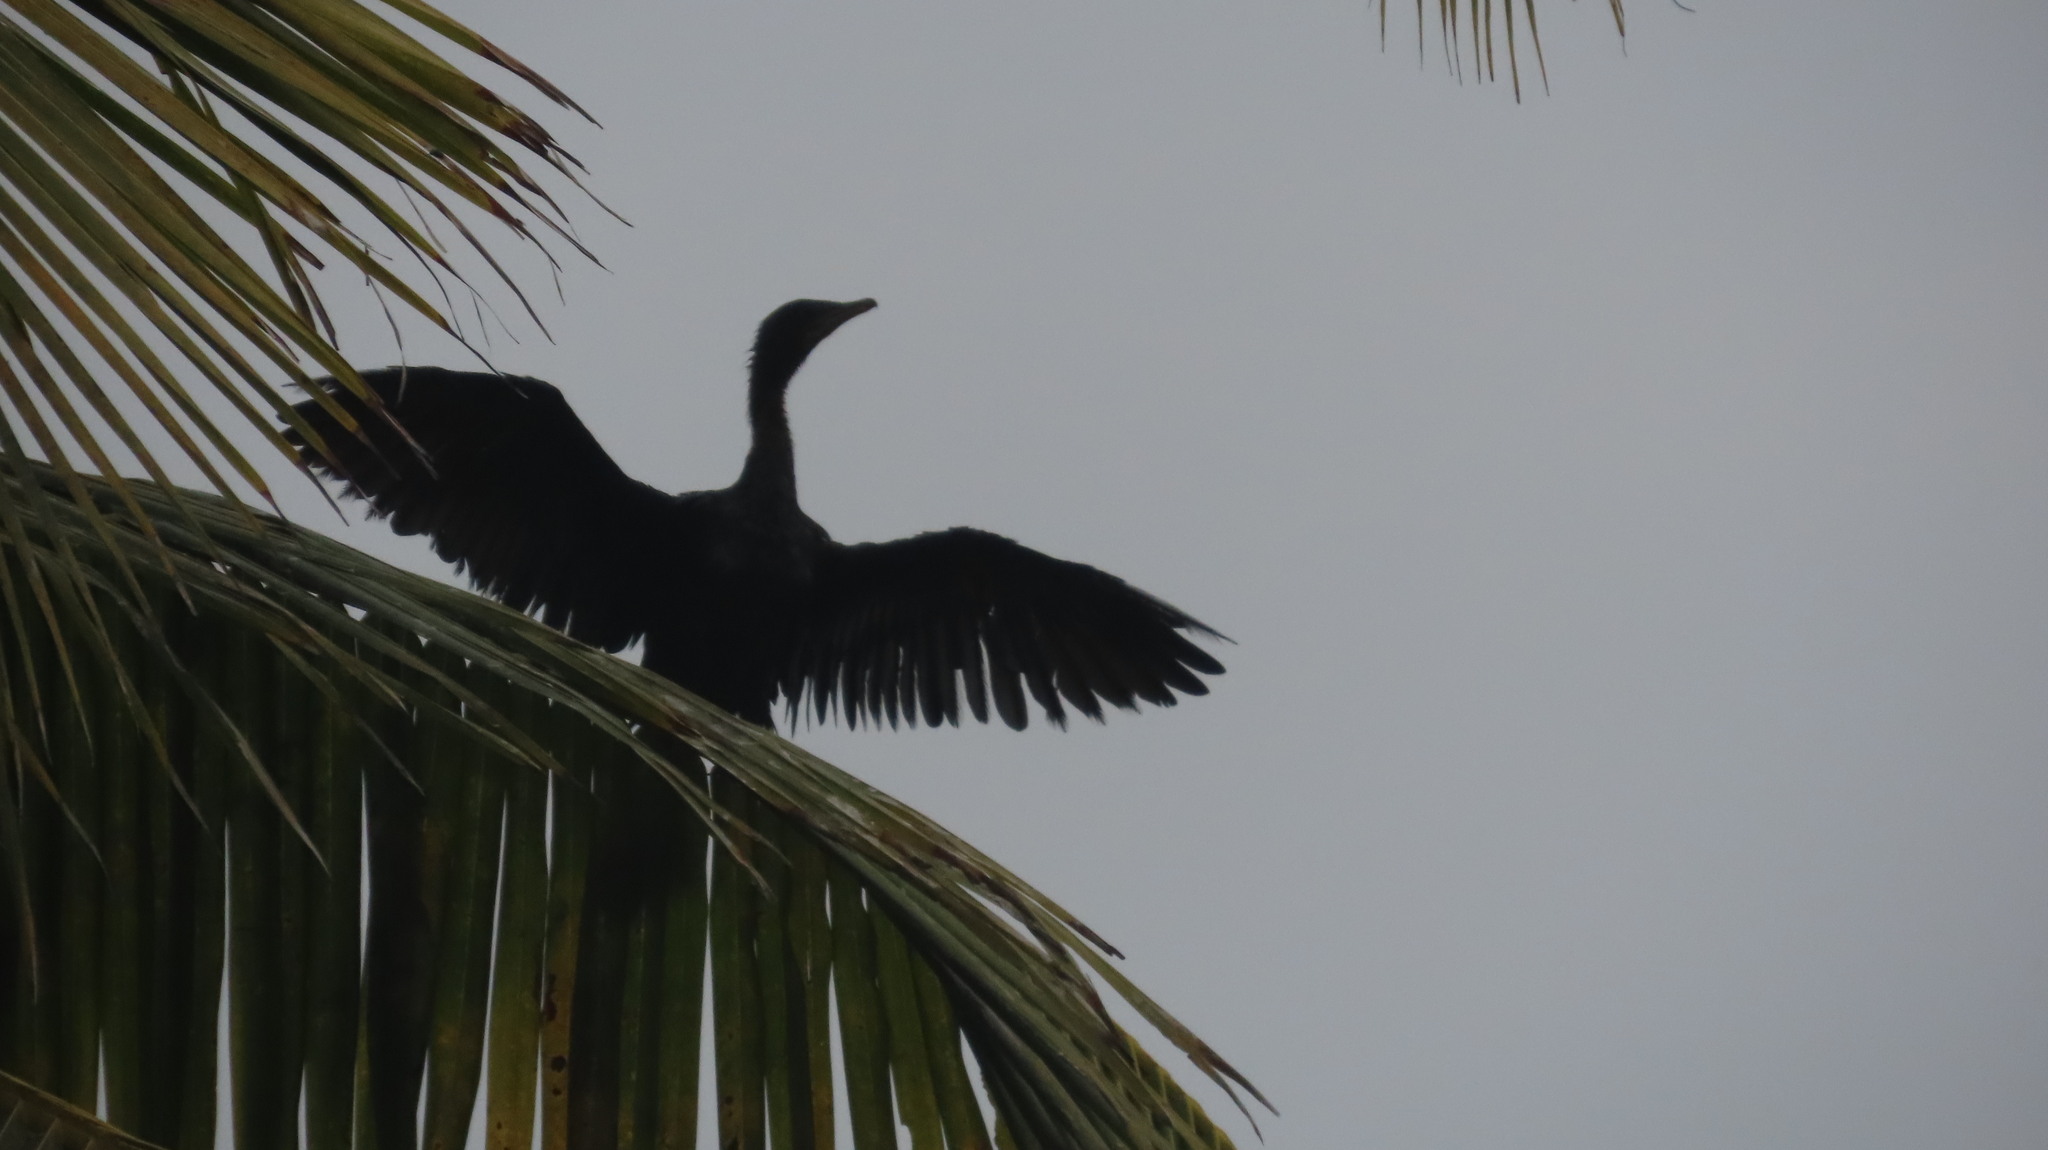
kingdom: Animalia
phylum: Chordata
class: Aves
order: Suliformes
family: Phalacrocoracidae
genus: Microcarbo
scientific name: Microcarbo niger
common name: Little cormorant
